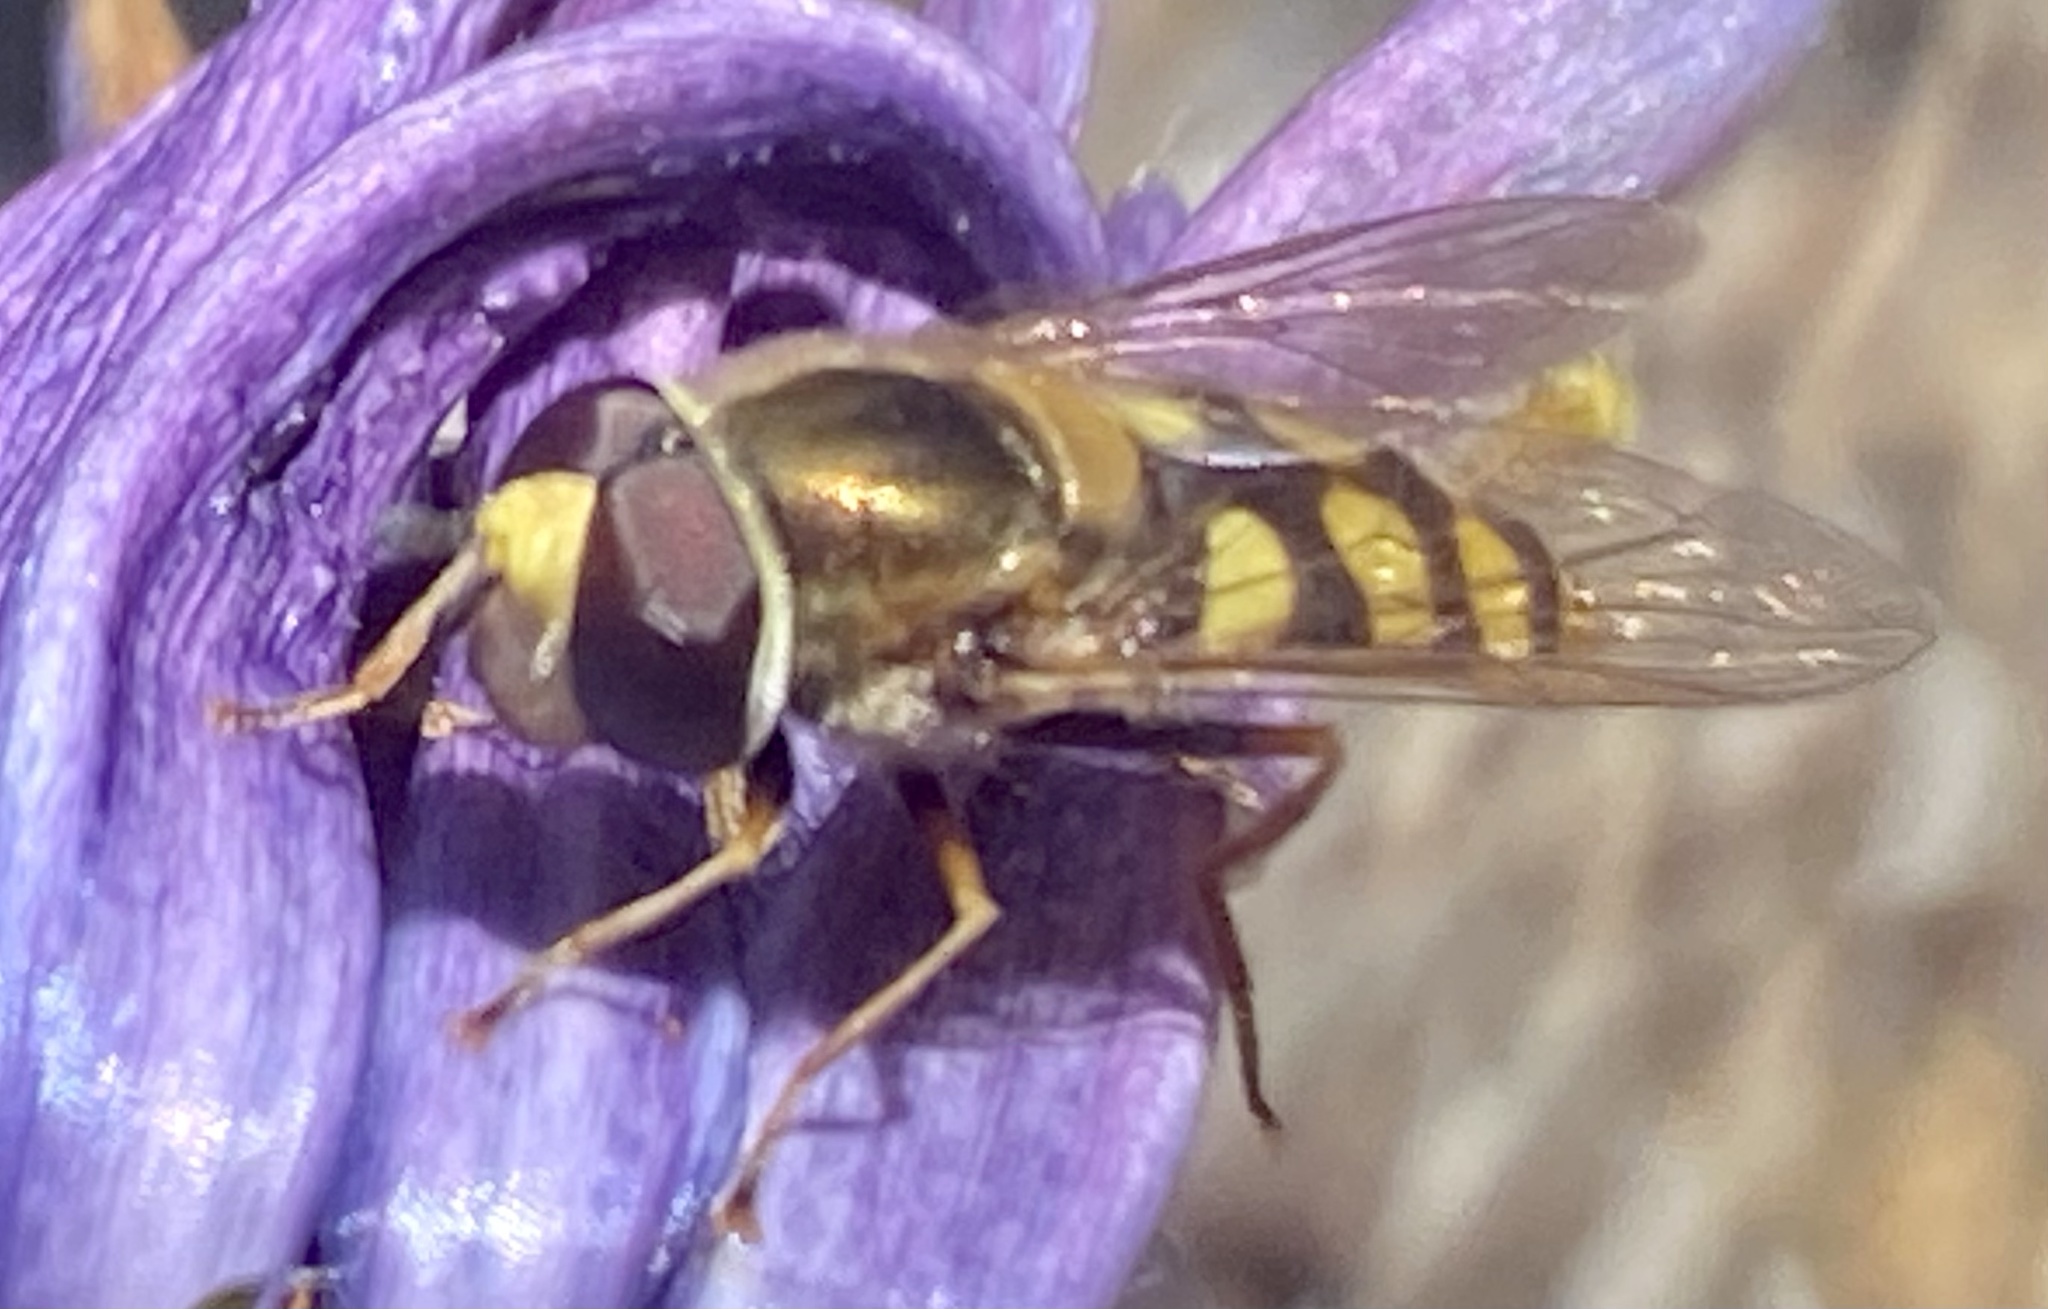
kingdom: Animalia
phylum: Arthropoda
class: Insecta
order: Diptera
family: Syrphidae
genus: Eupeodes
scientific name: Eupeodes corollae
